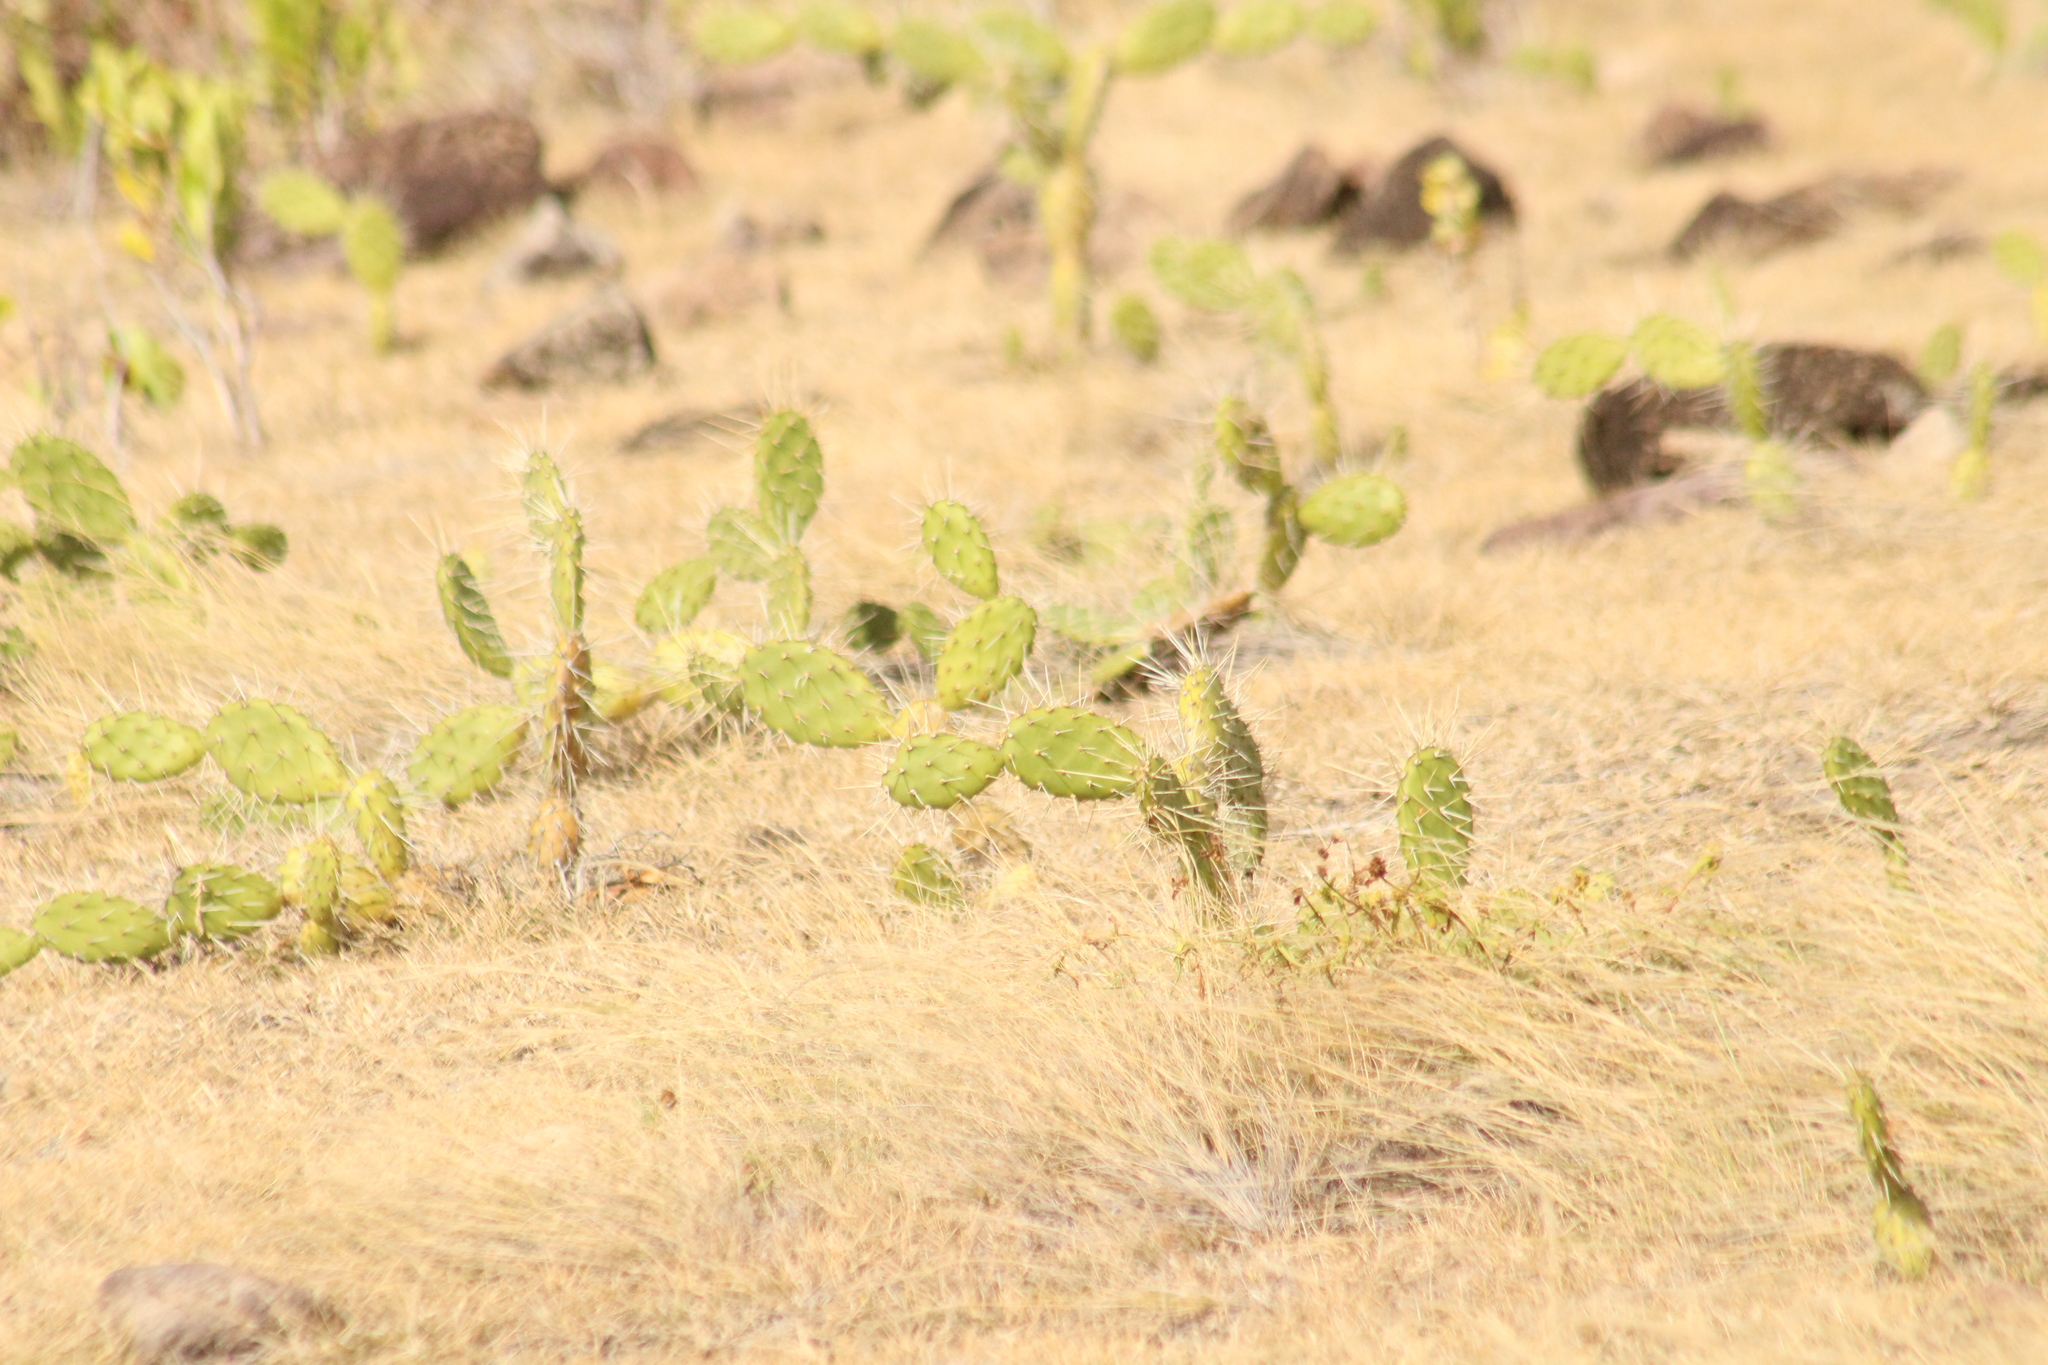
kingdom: Plantae
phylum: Tracheophyta
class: Magnoliopsida
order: Caryophyllales
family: Cactaceae
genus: Opuntia
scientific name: Opuntia triacanthos
